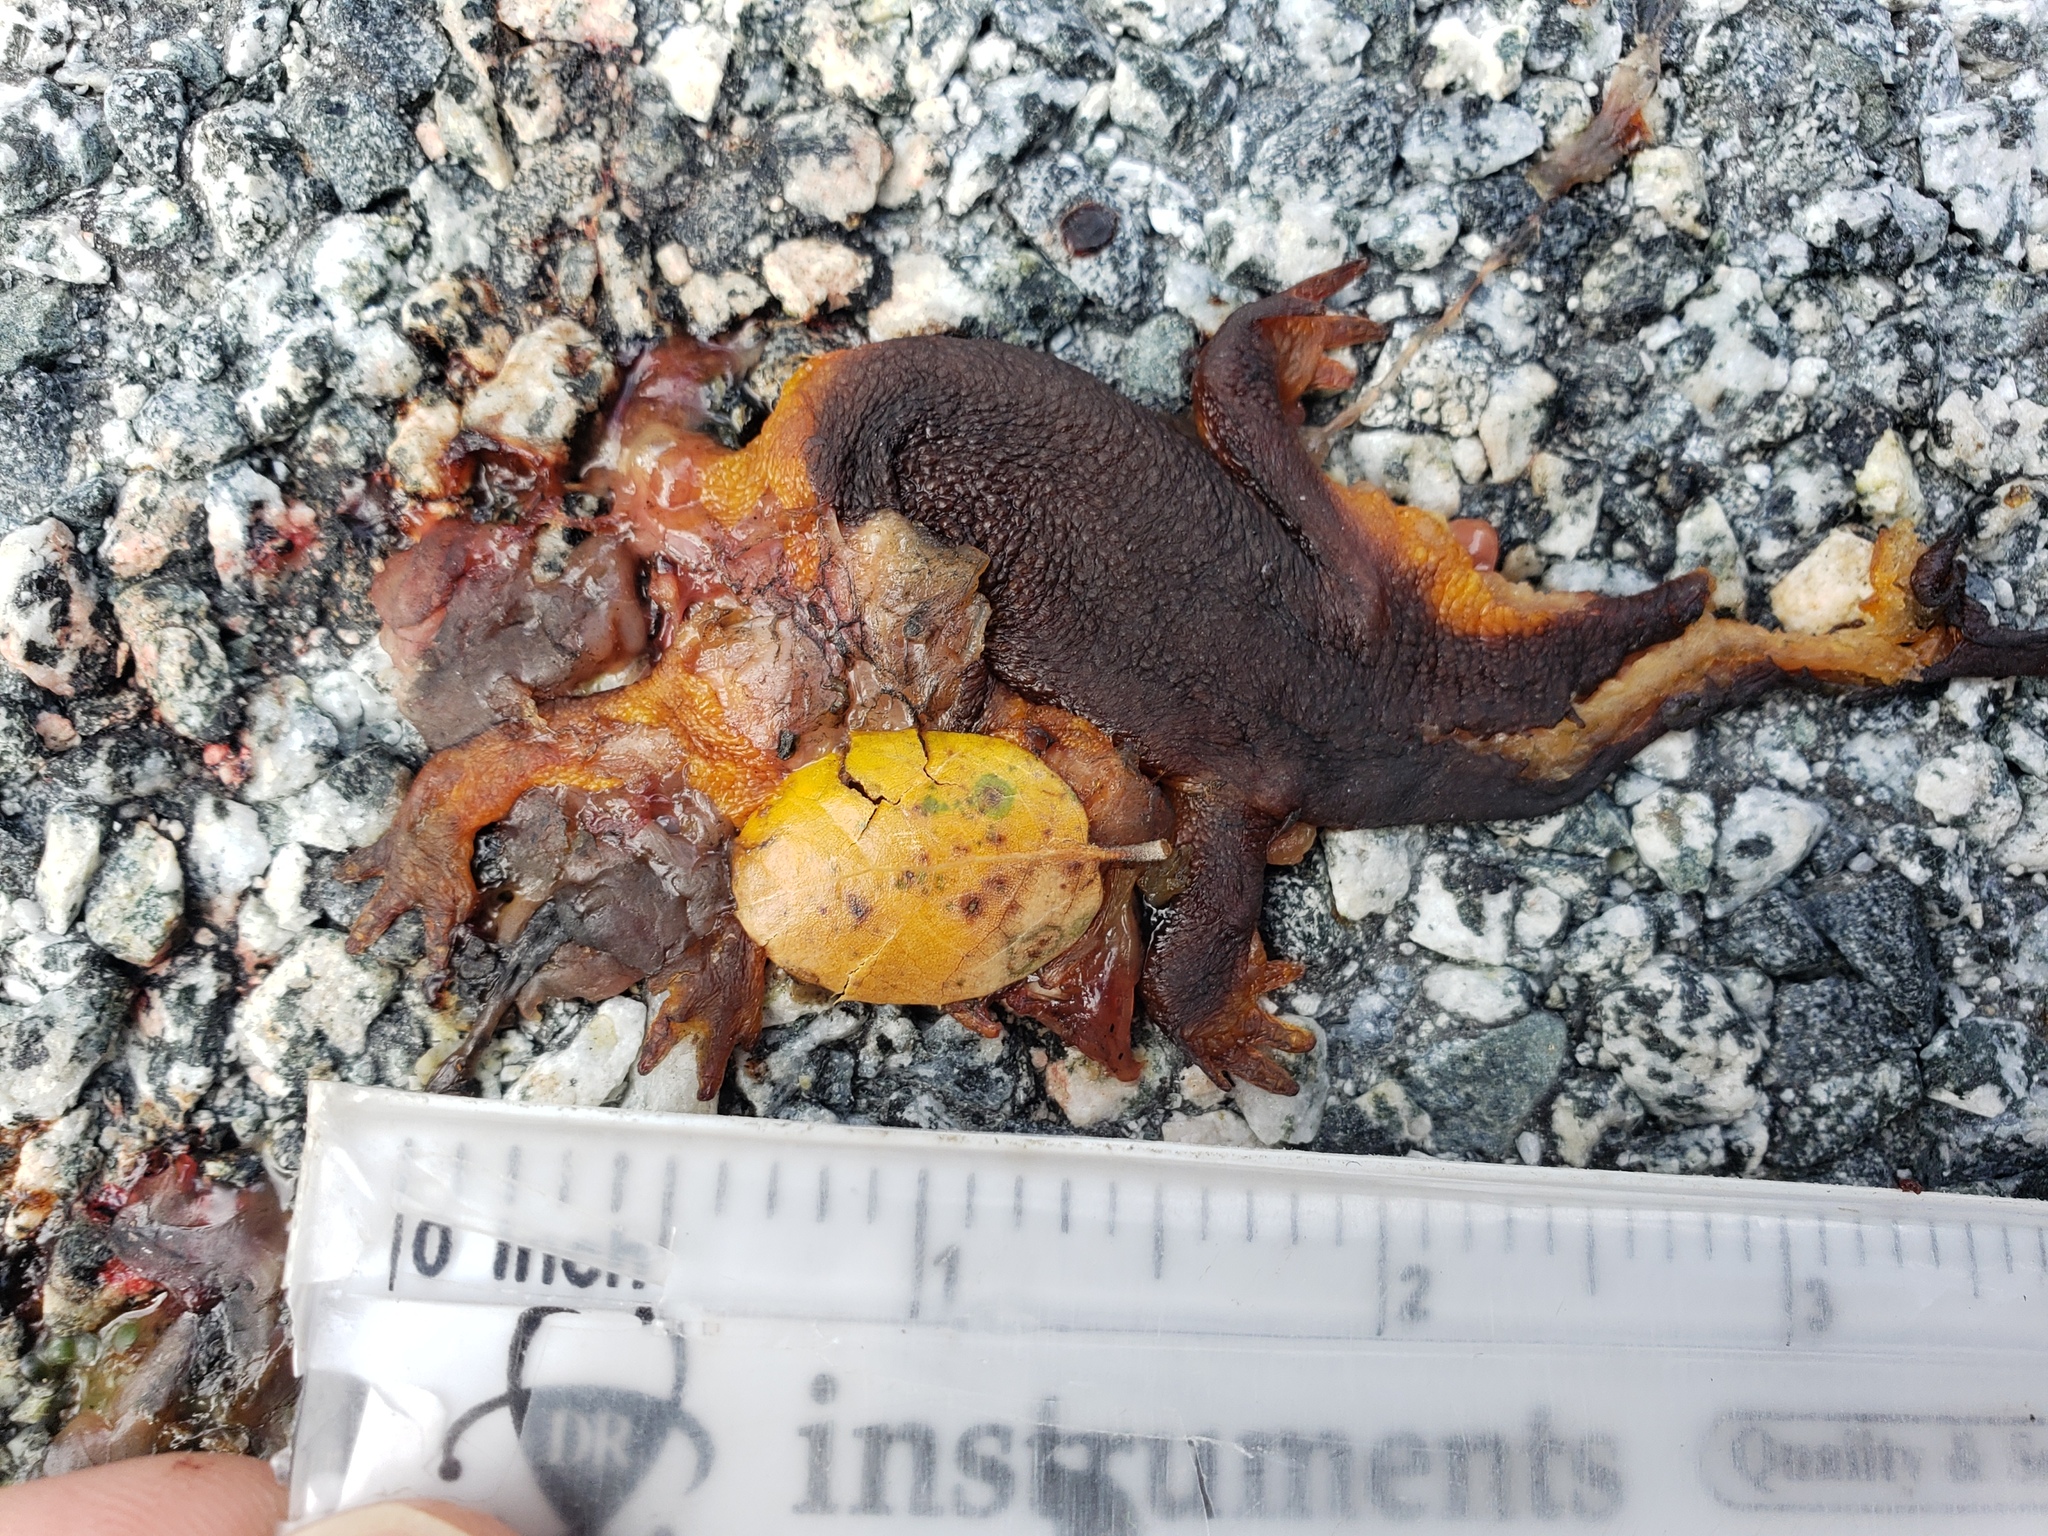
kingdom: Animalia
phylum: Chordata
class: Amphibia
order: Caudata
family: Salamandridae
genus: Taricha
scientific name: Taricha
